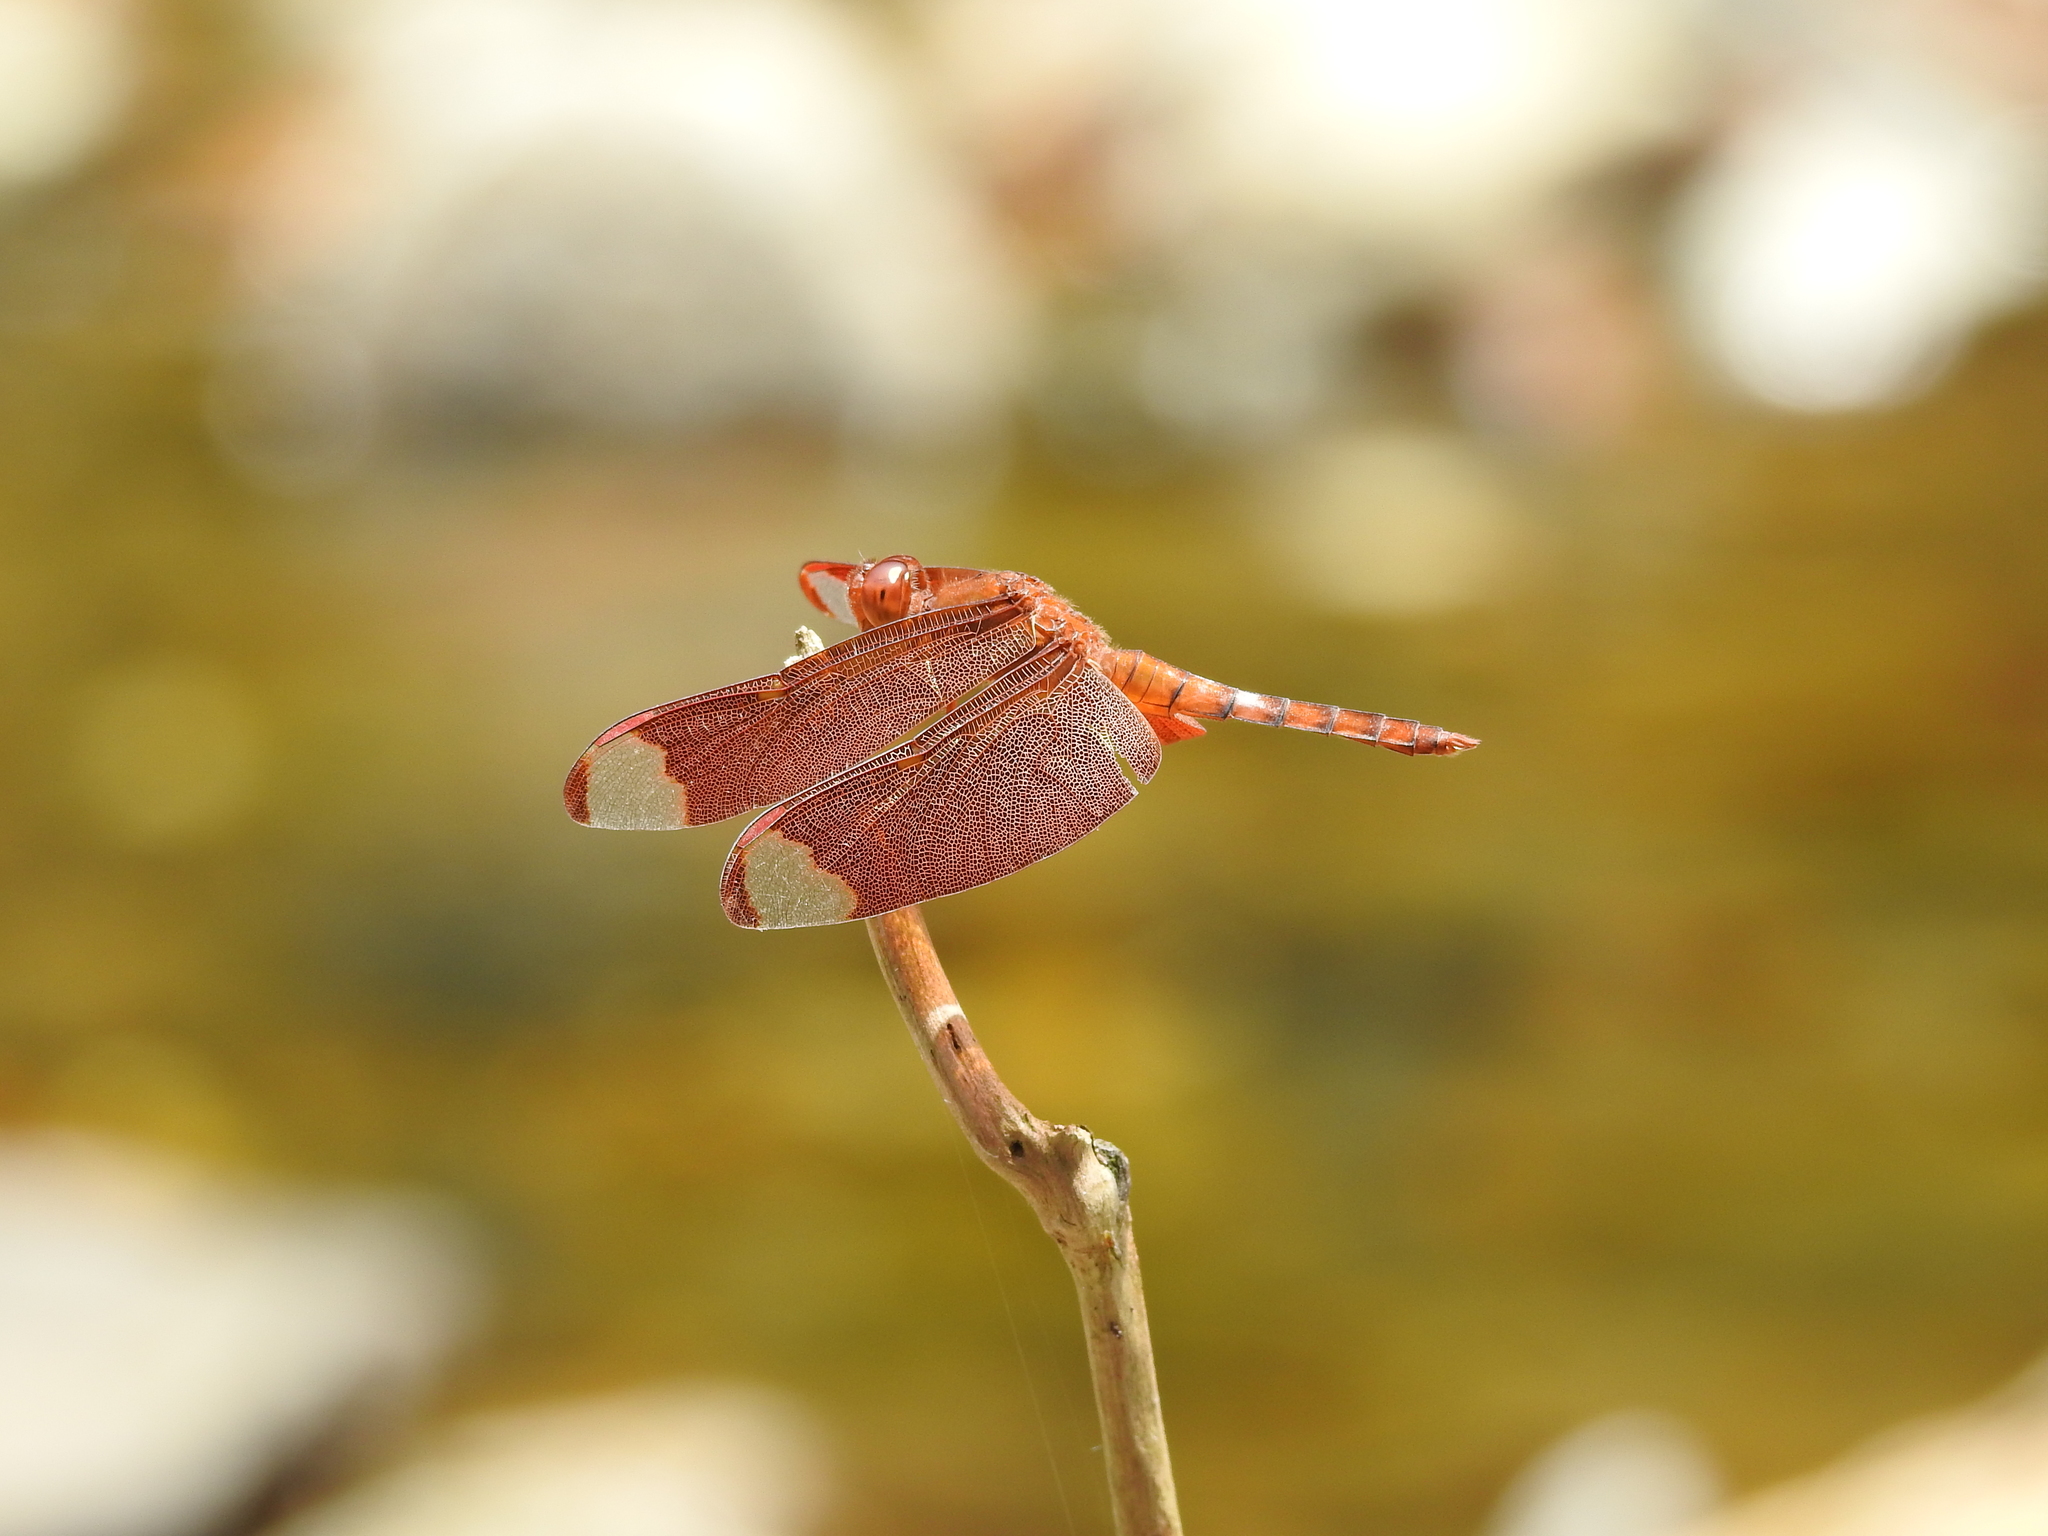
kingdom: Animalia
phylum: Arthropoda
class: Insecta
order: Odonata
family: Libellulidae
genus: Neurothemis
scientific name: Neurothemis fulvia
